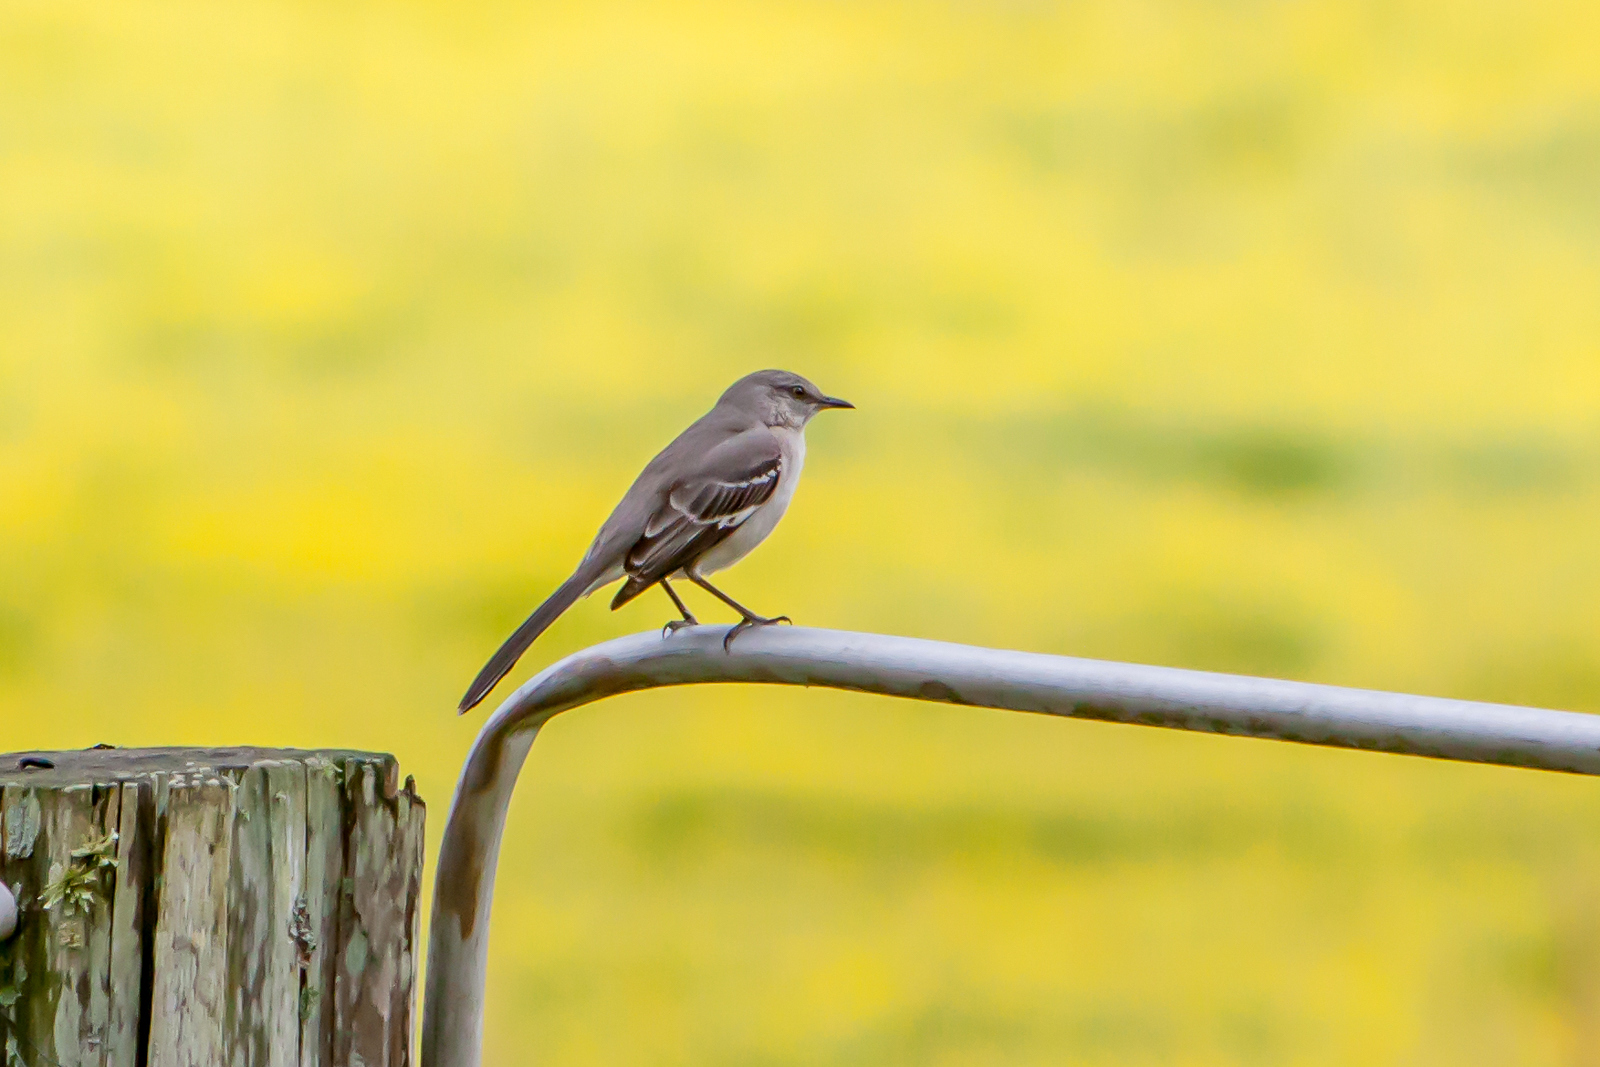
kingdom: Animalia
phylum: Chordata
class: Aves
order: Passeriformes
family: Mimidae
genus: Mimus
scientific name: Mimus polyglottos
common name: Northern mockingbird
